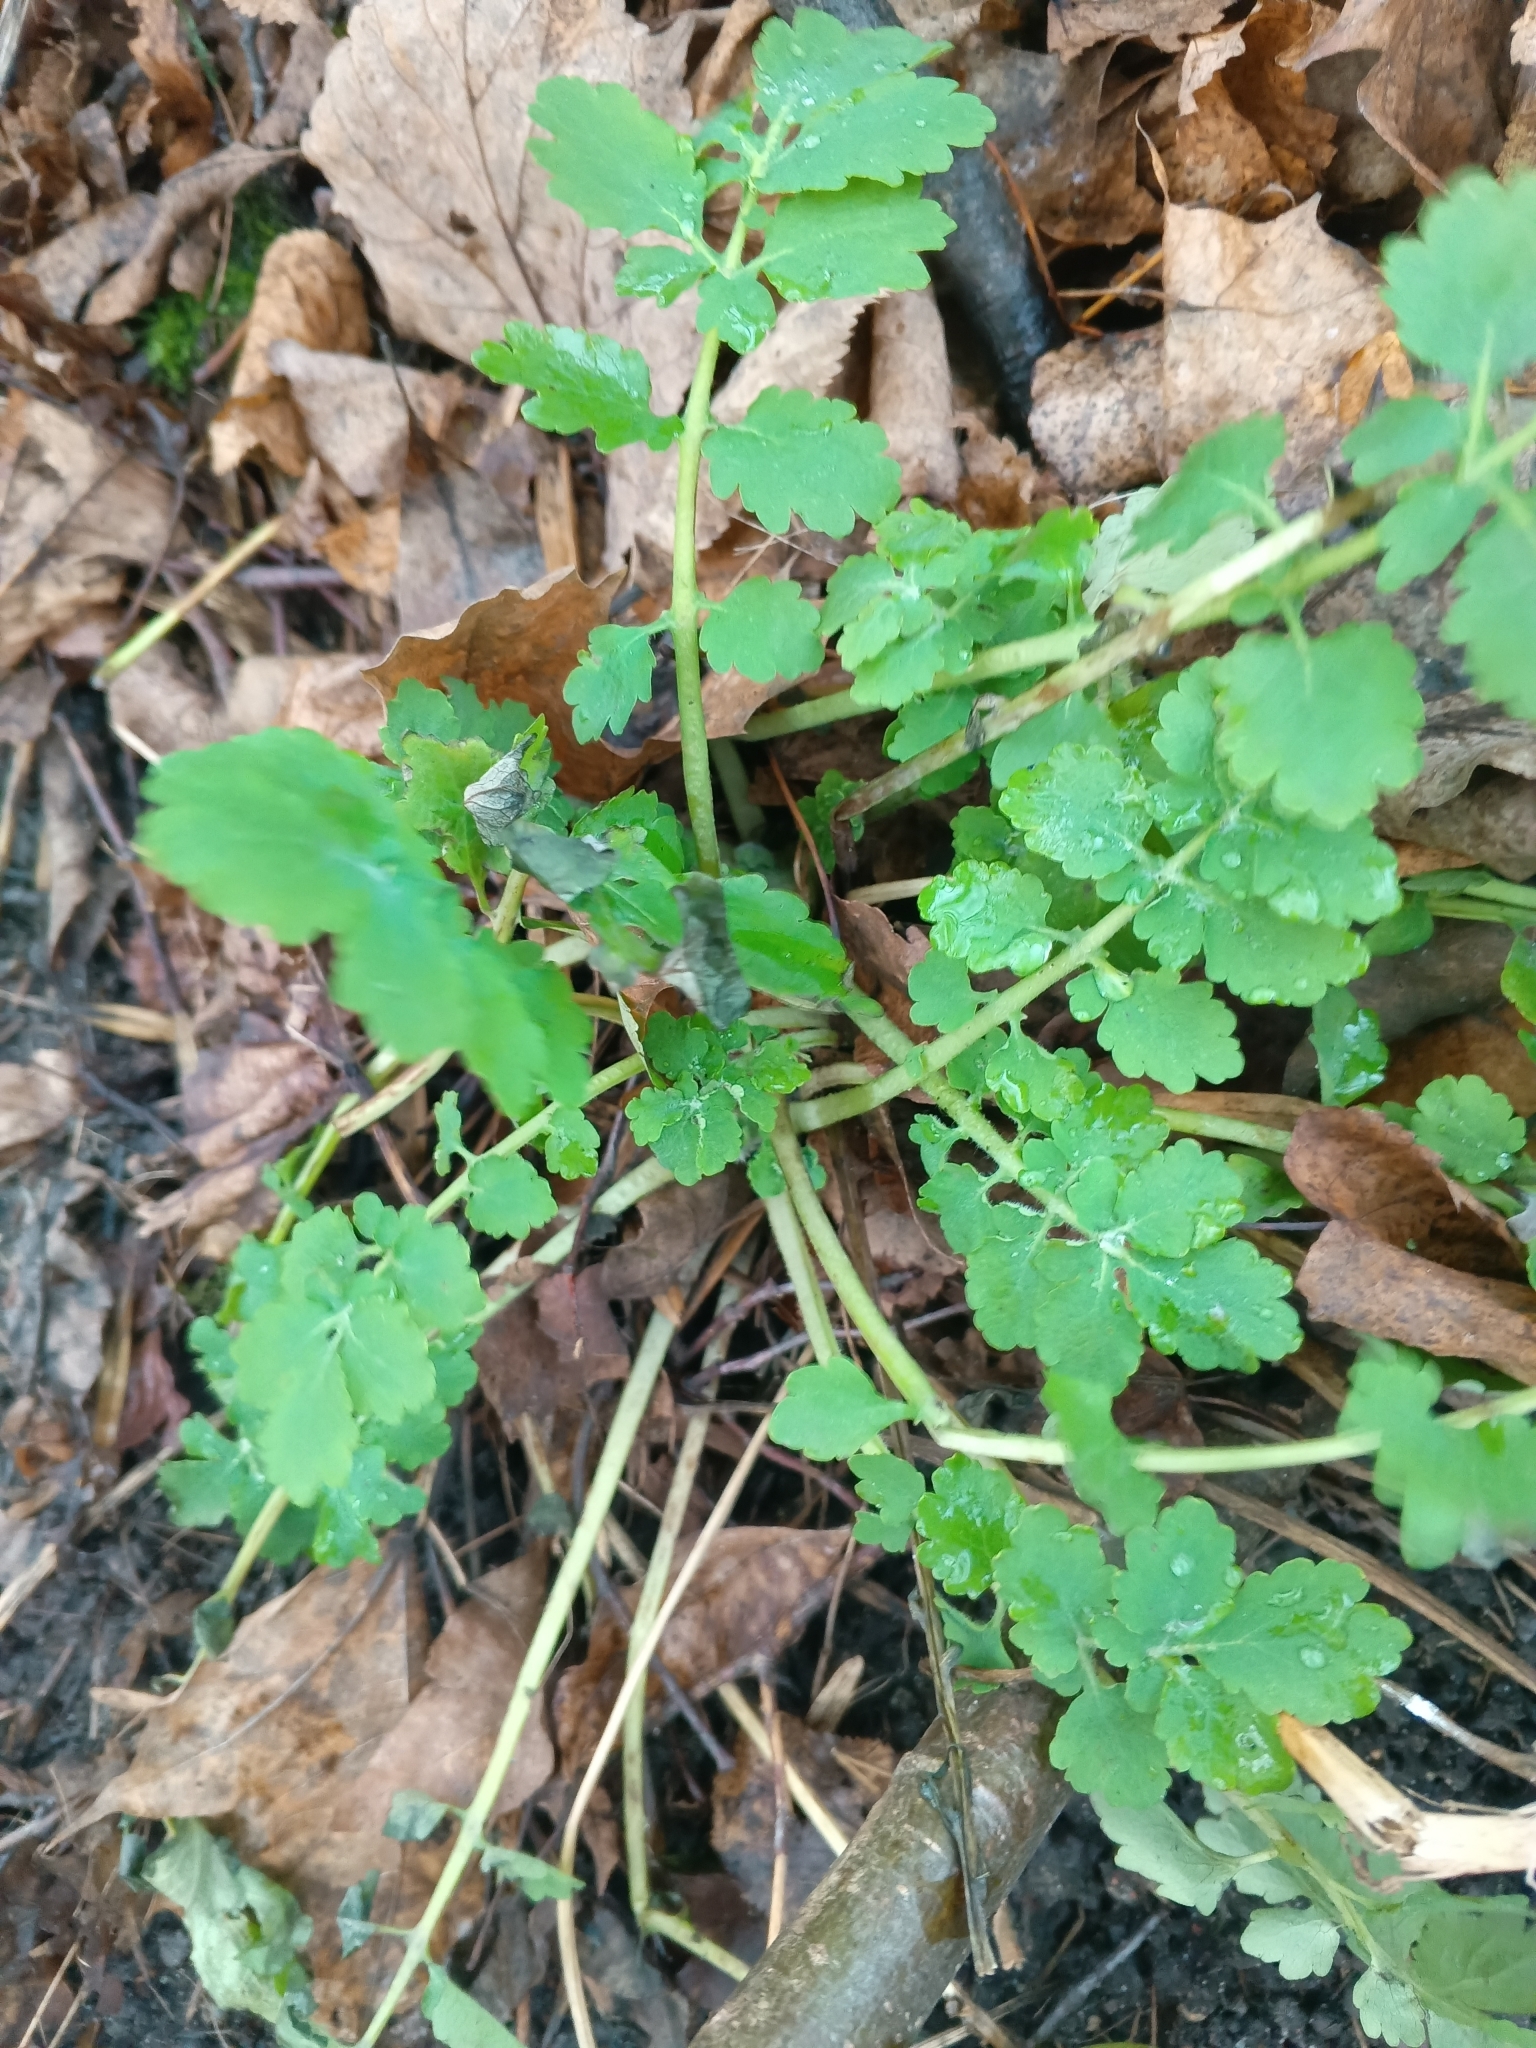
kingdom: Plantae
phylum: Tracheophyta
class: Magnoliopsida
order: Ranunculales
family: Papaveraceae
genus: Chelidonium
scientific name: Chelidonium majus
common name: Greater celandine
